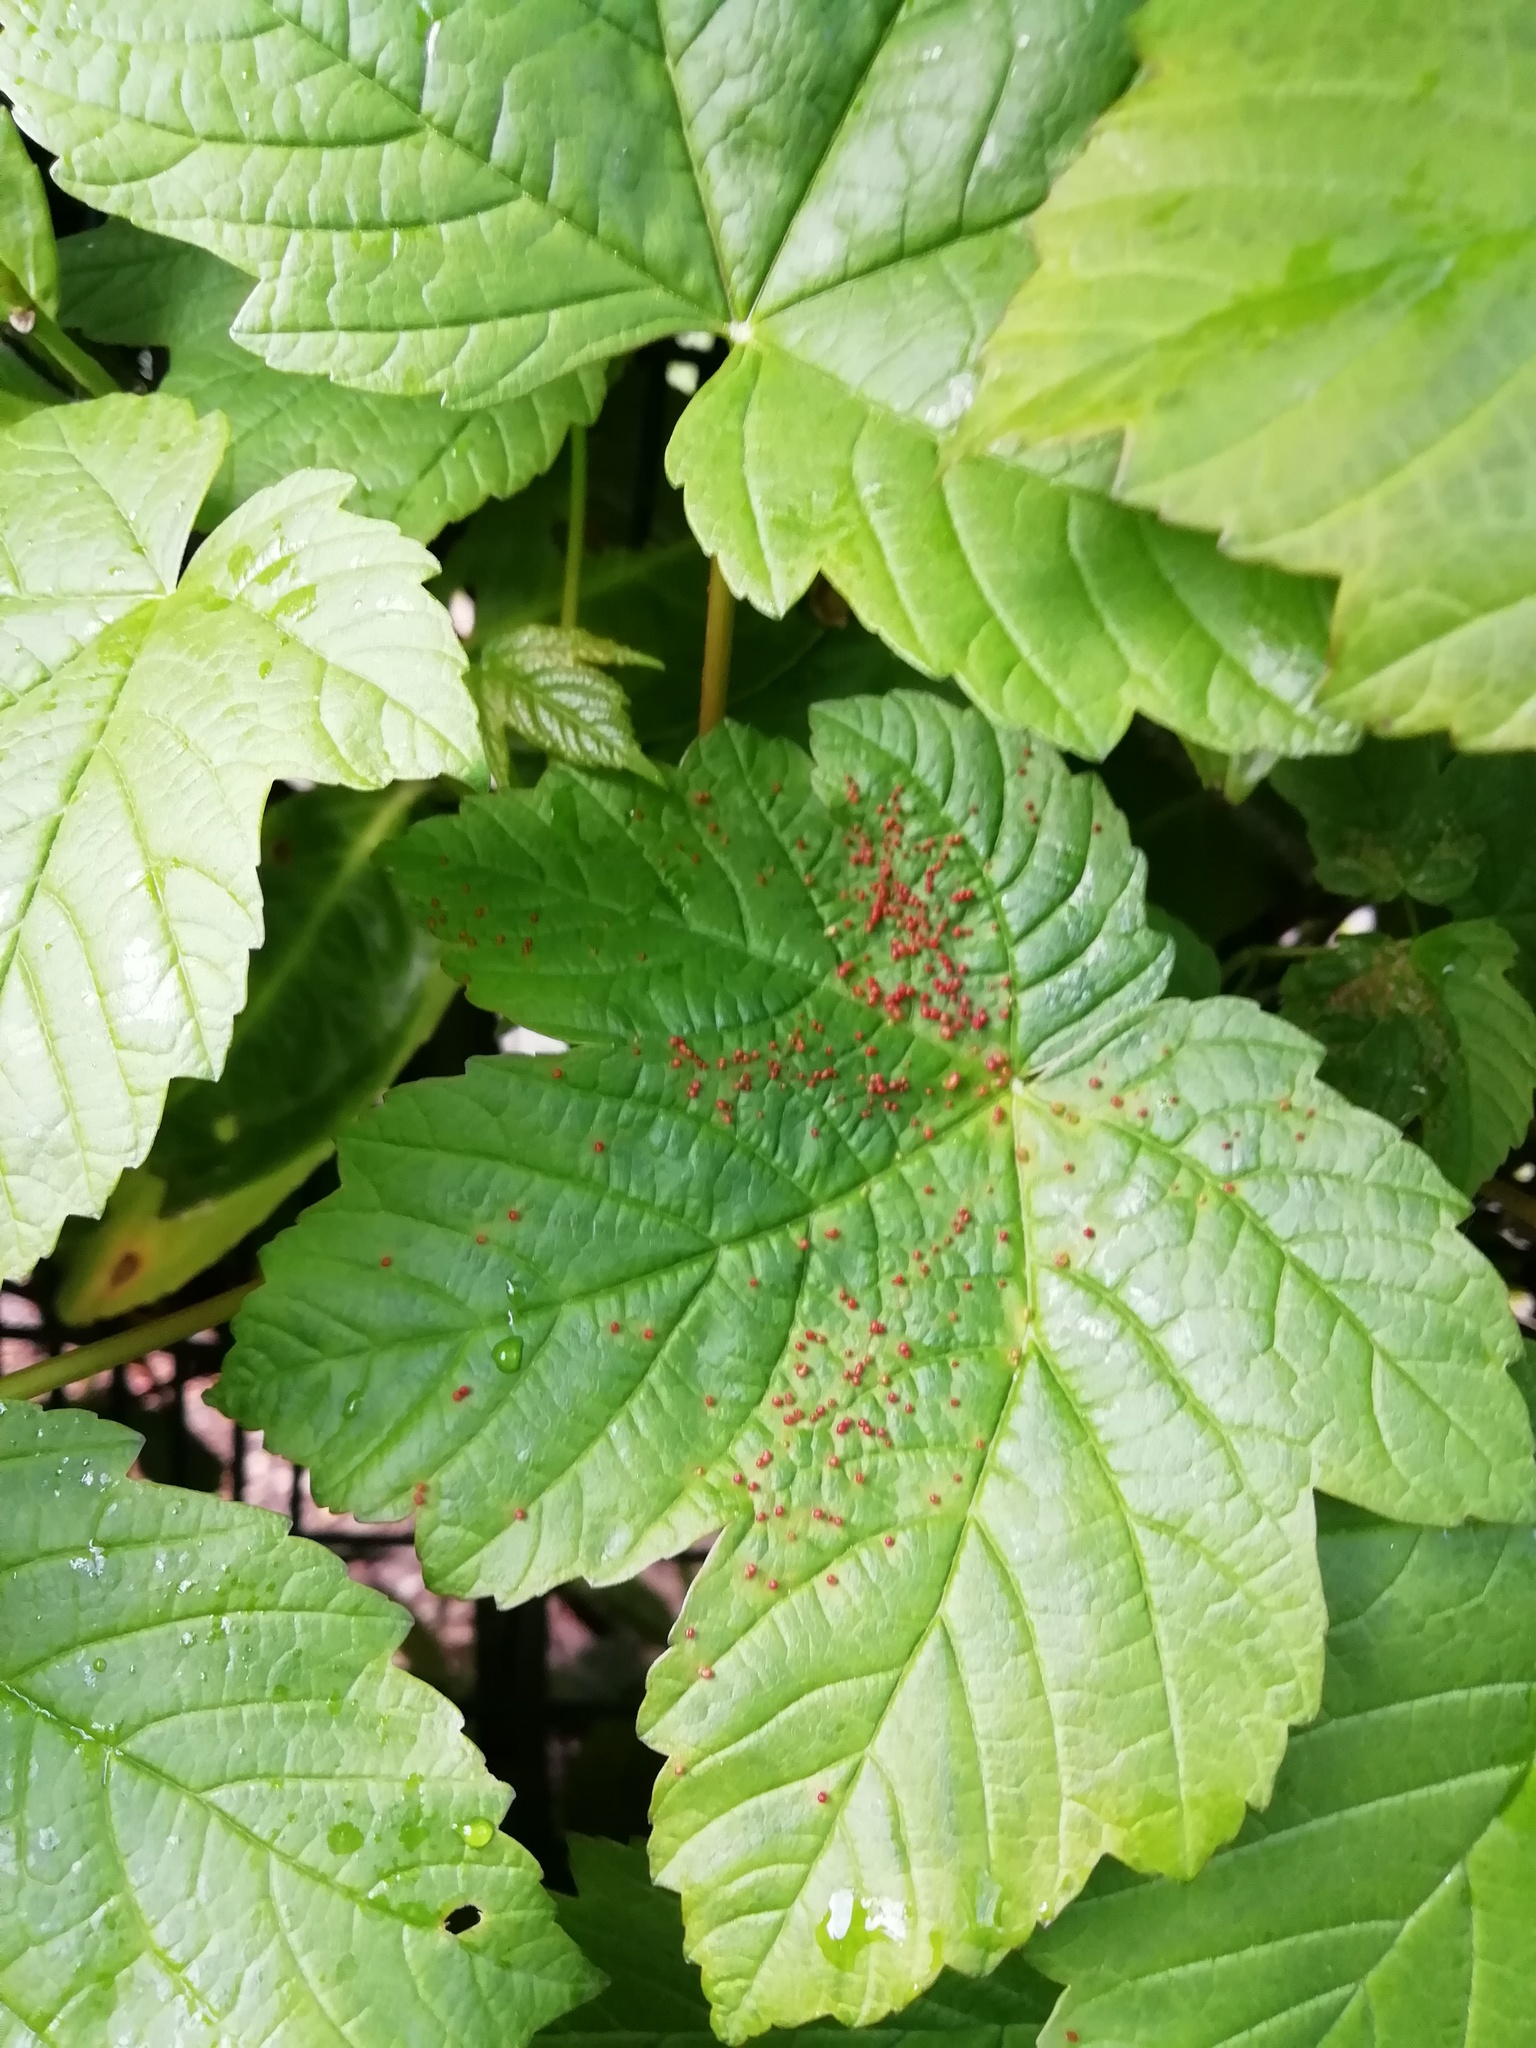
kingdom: Plantae
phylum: Tracheophyta
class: Magnoliopsida
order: Sapindales
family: Sapindaceae
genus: Acer
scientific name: Acer pseudoplatanus
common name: Sycamore
